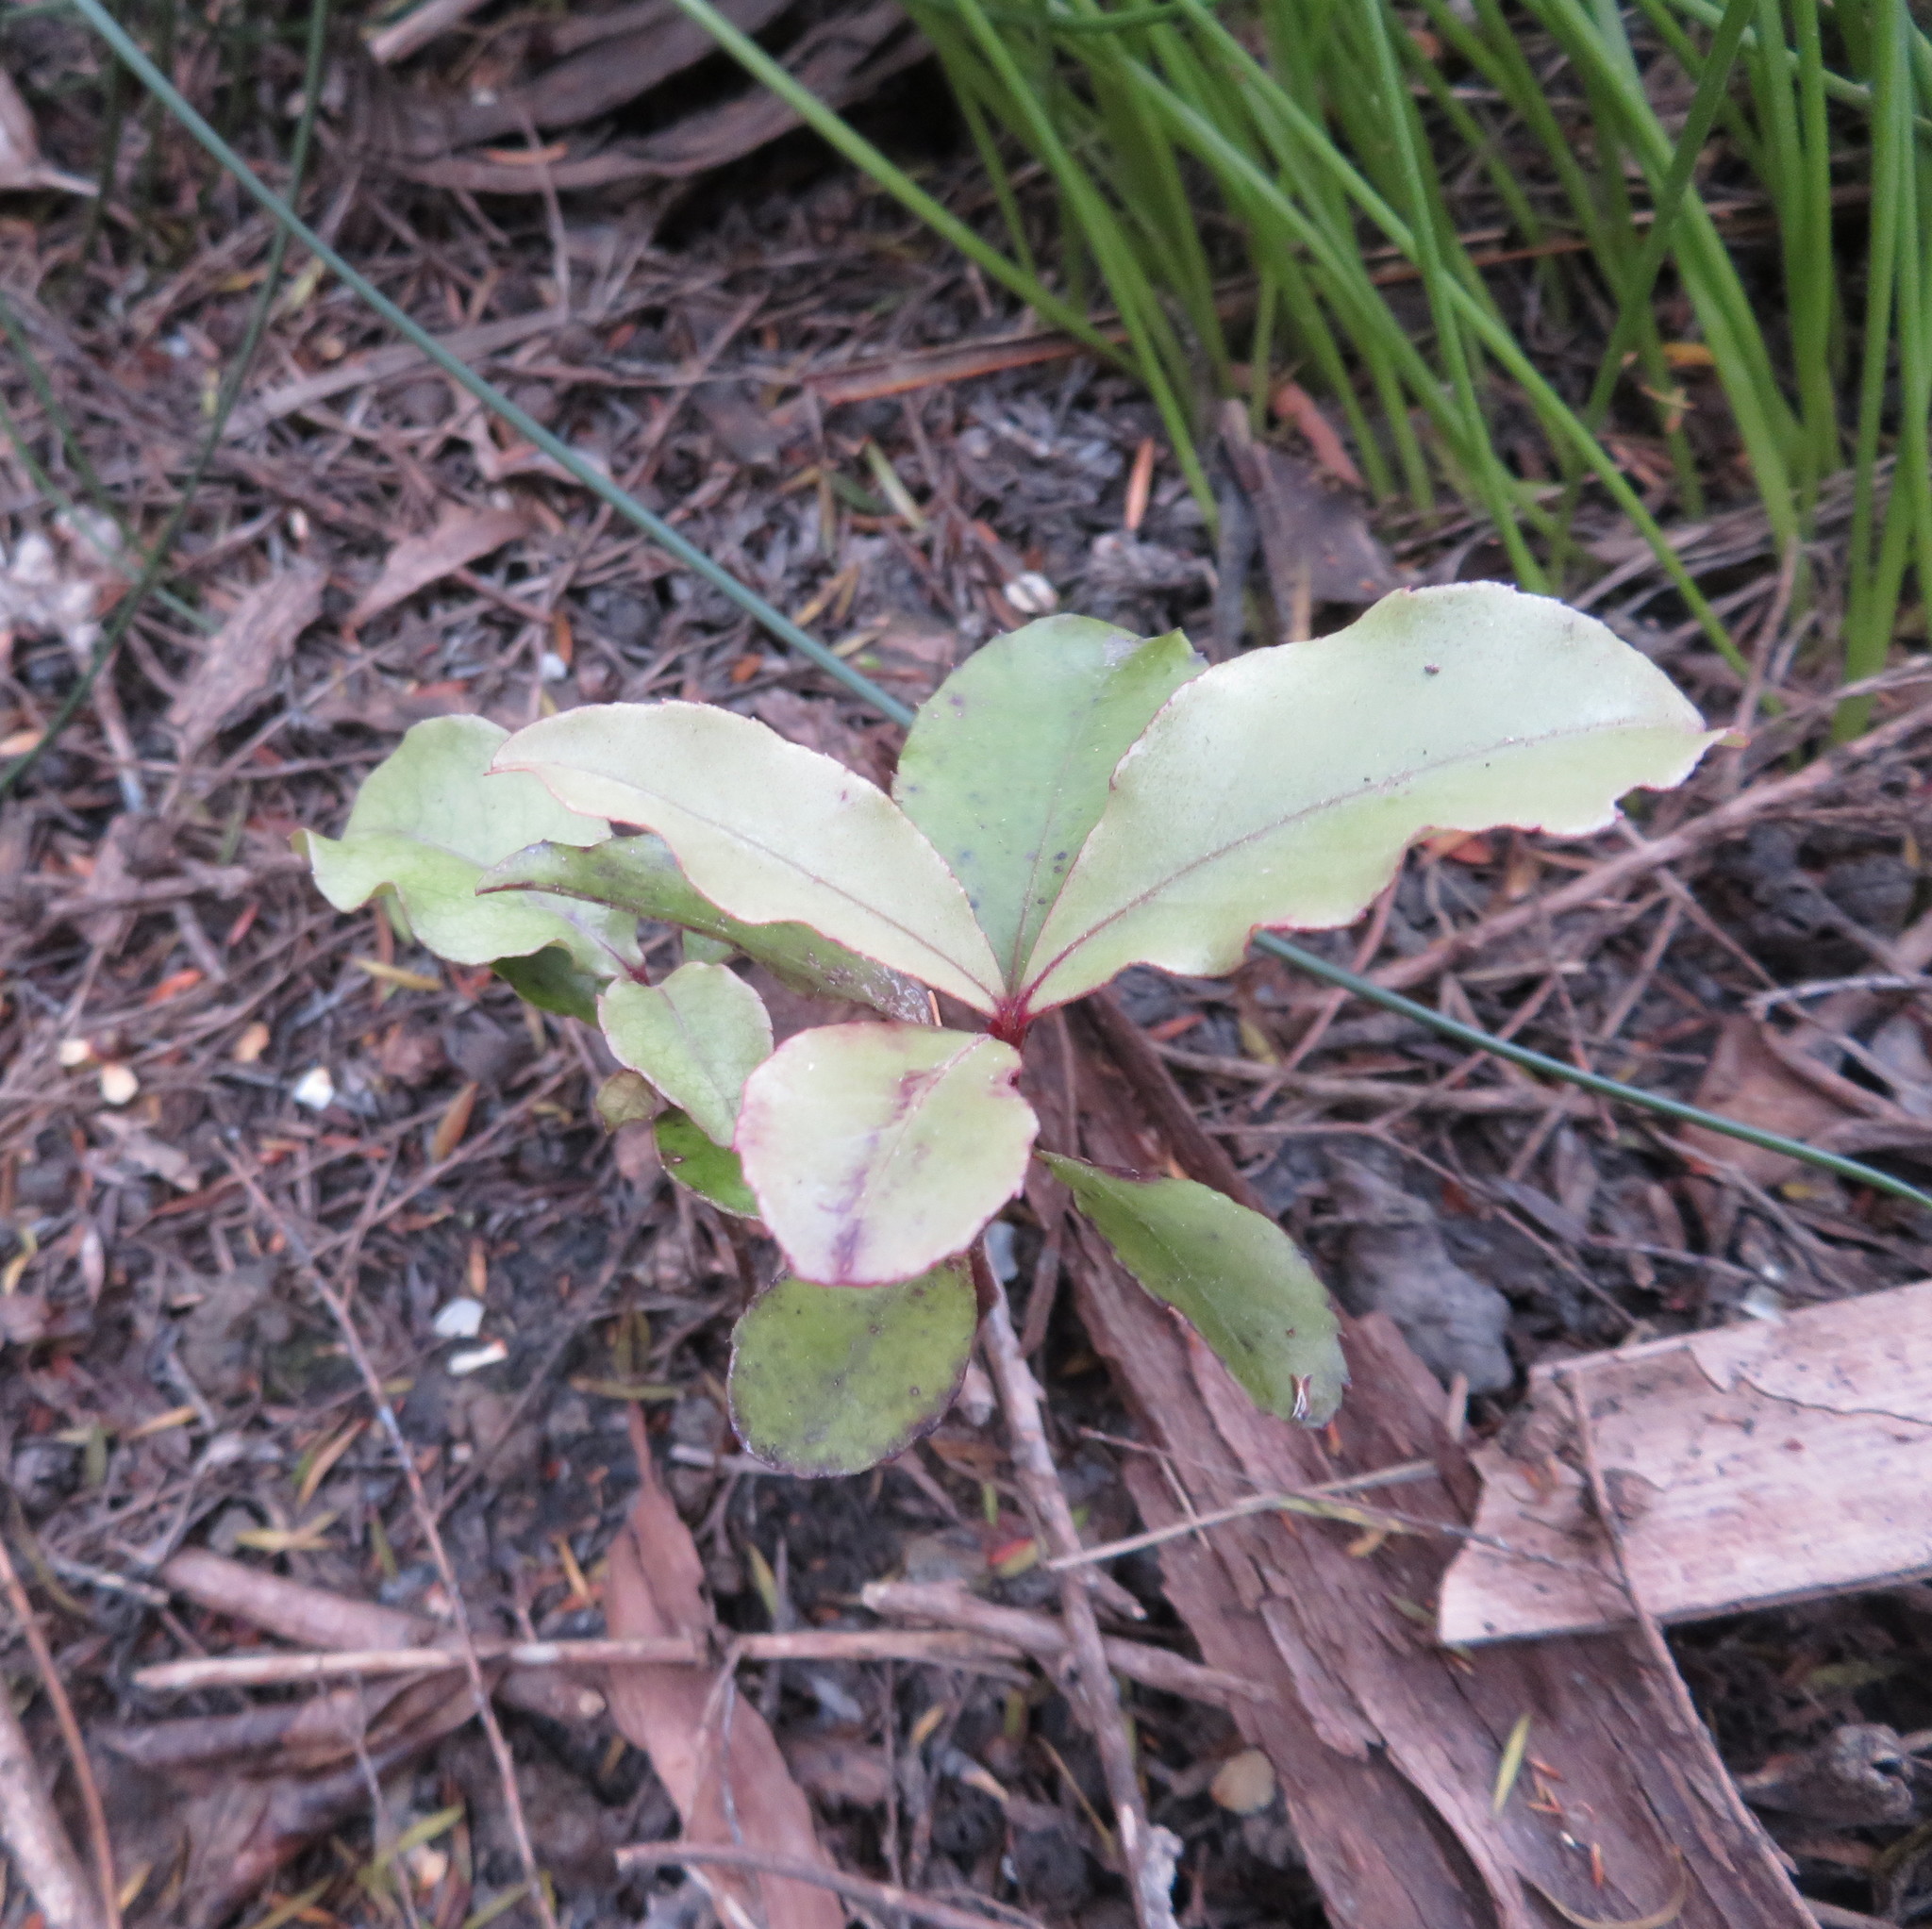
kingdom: Plantae
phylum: Tracheophyta
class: Magnoliopsida
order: Ericales
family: Primulaceae
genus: Myrsine
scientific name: Myrsine australis
